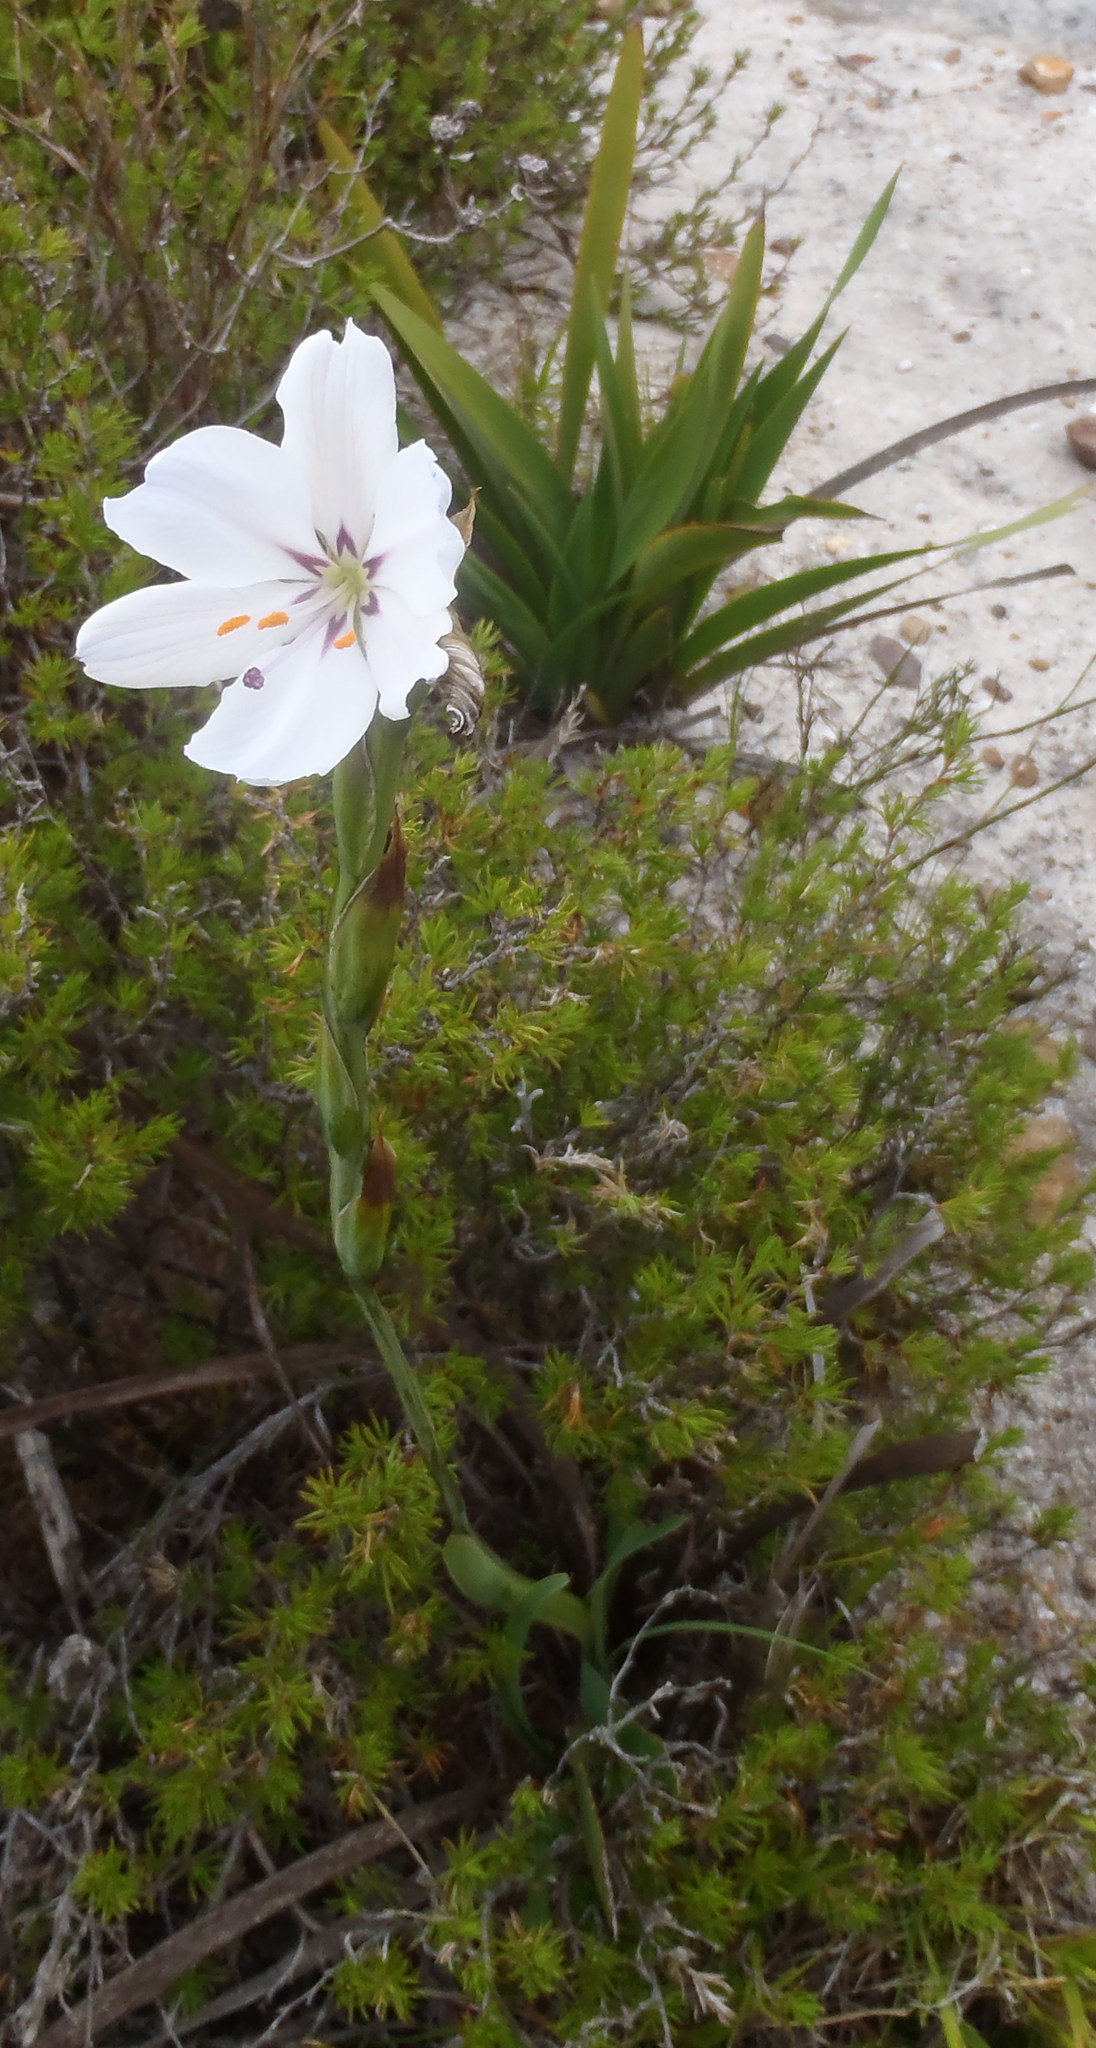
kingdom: Plantae
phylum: Tracheophyta
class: Liliopsida
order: Asparagales
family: Iridaceae
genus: Aristea
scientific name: Aristea spiralis
